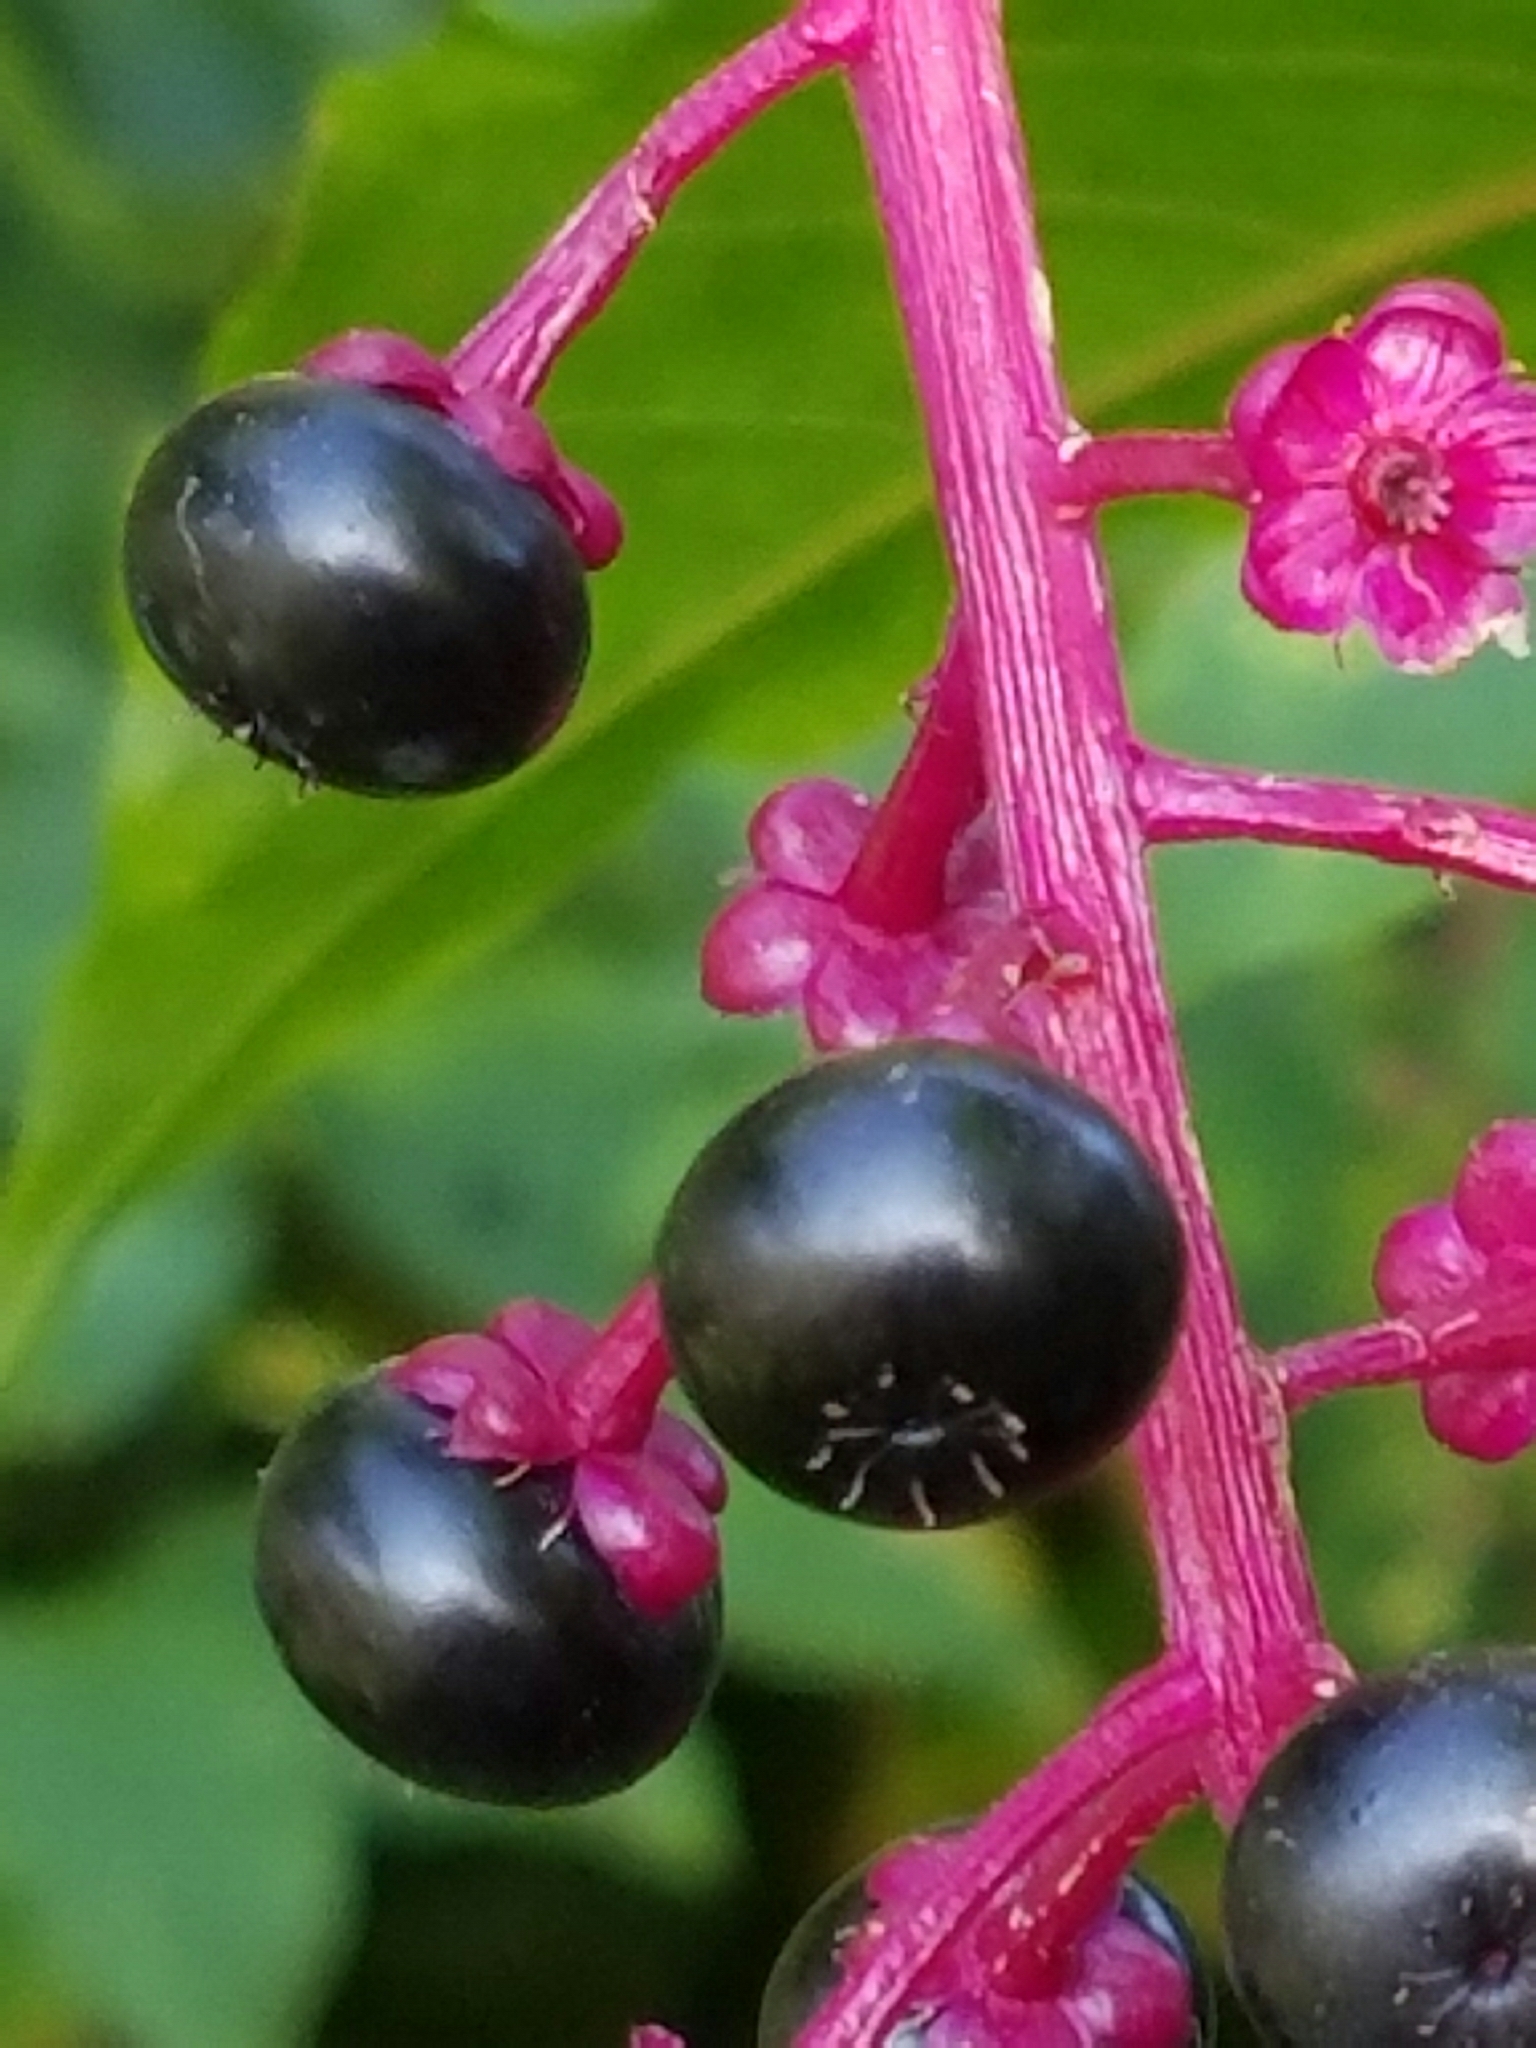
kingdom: Plantae
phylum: Tracheophyta
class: Magnoliopsida
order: Caryophyllales
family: Phytolaccaceae
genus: Phytolacca
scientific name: Phytolacca americana
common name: American pokeweed
